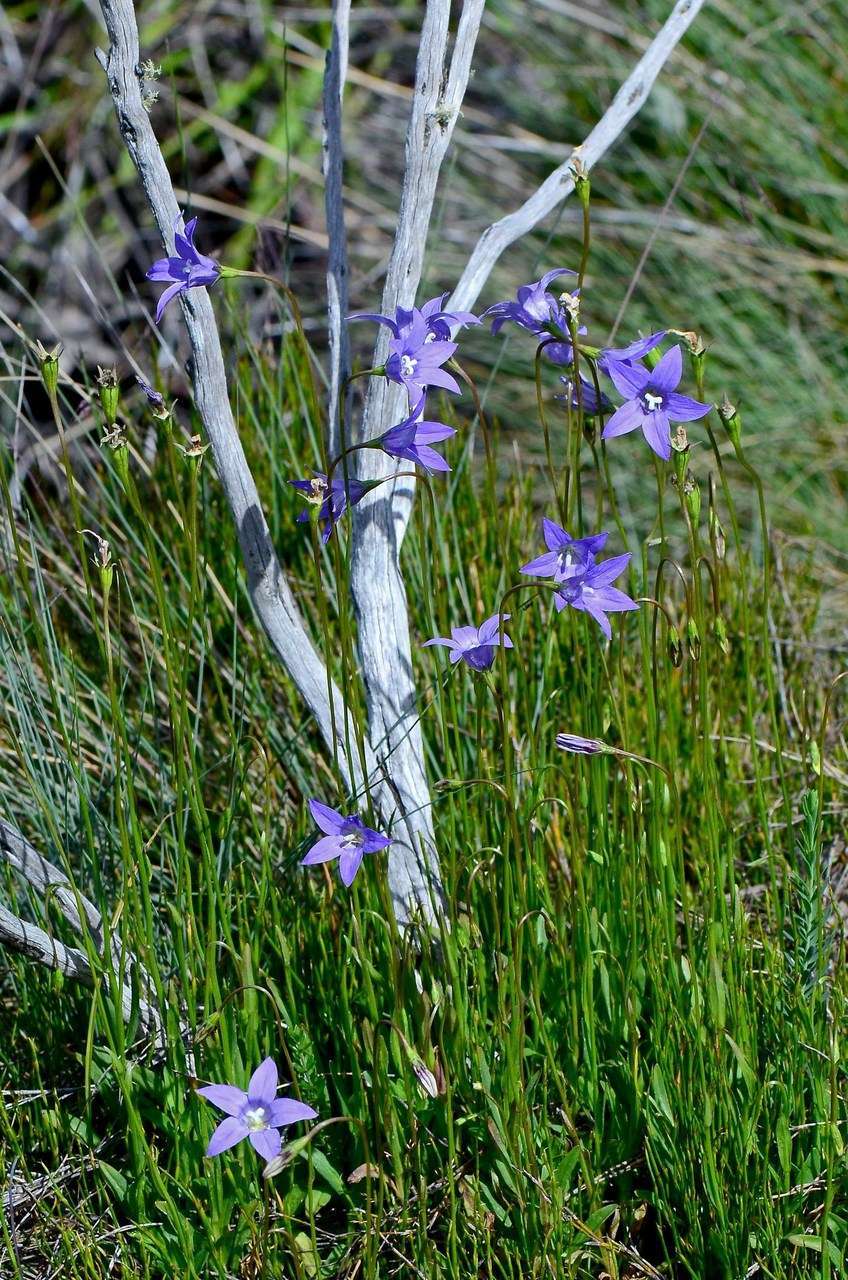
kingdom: Plantae
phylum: Tracheophyta
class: Magnoliopsida
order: Asterales
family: Campanulaceae
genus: Wahlenbergia
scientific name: Wahlenbergia gloriosa
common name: Royal bluebell
